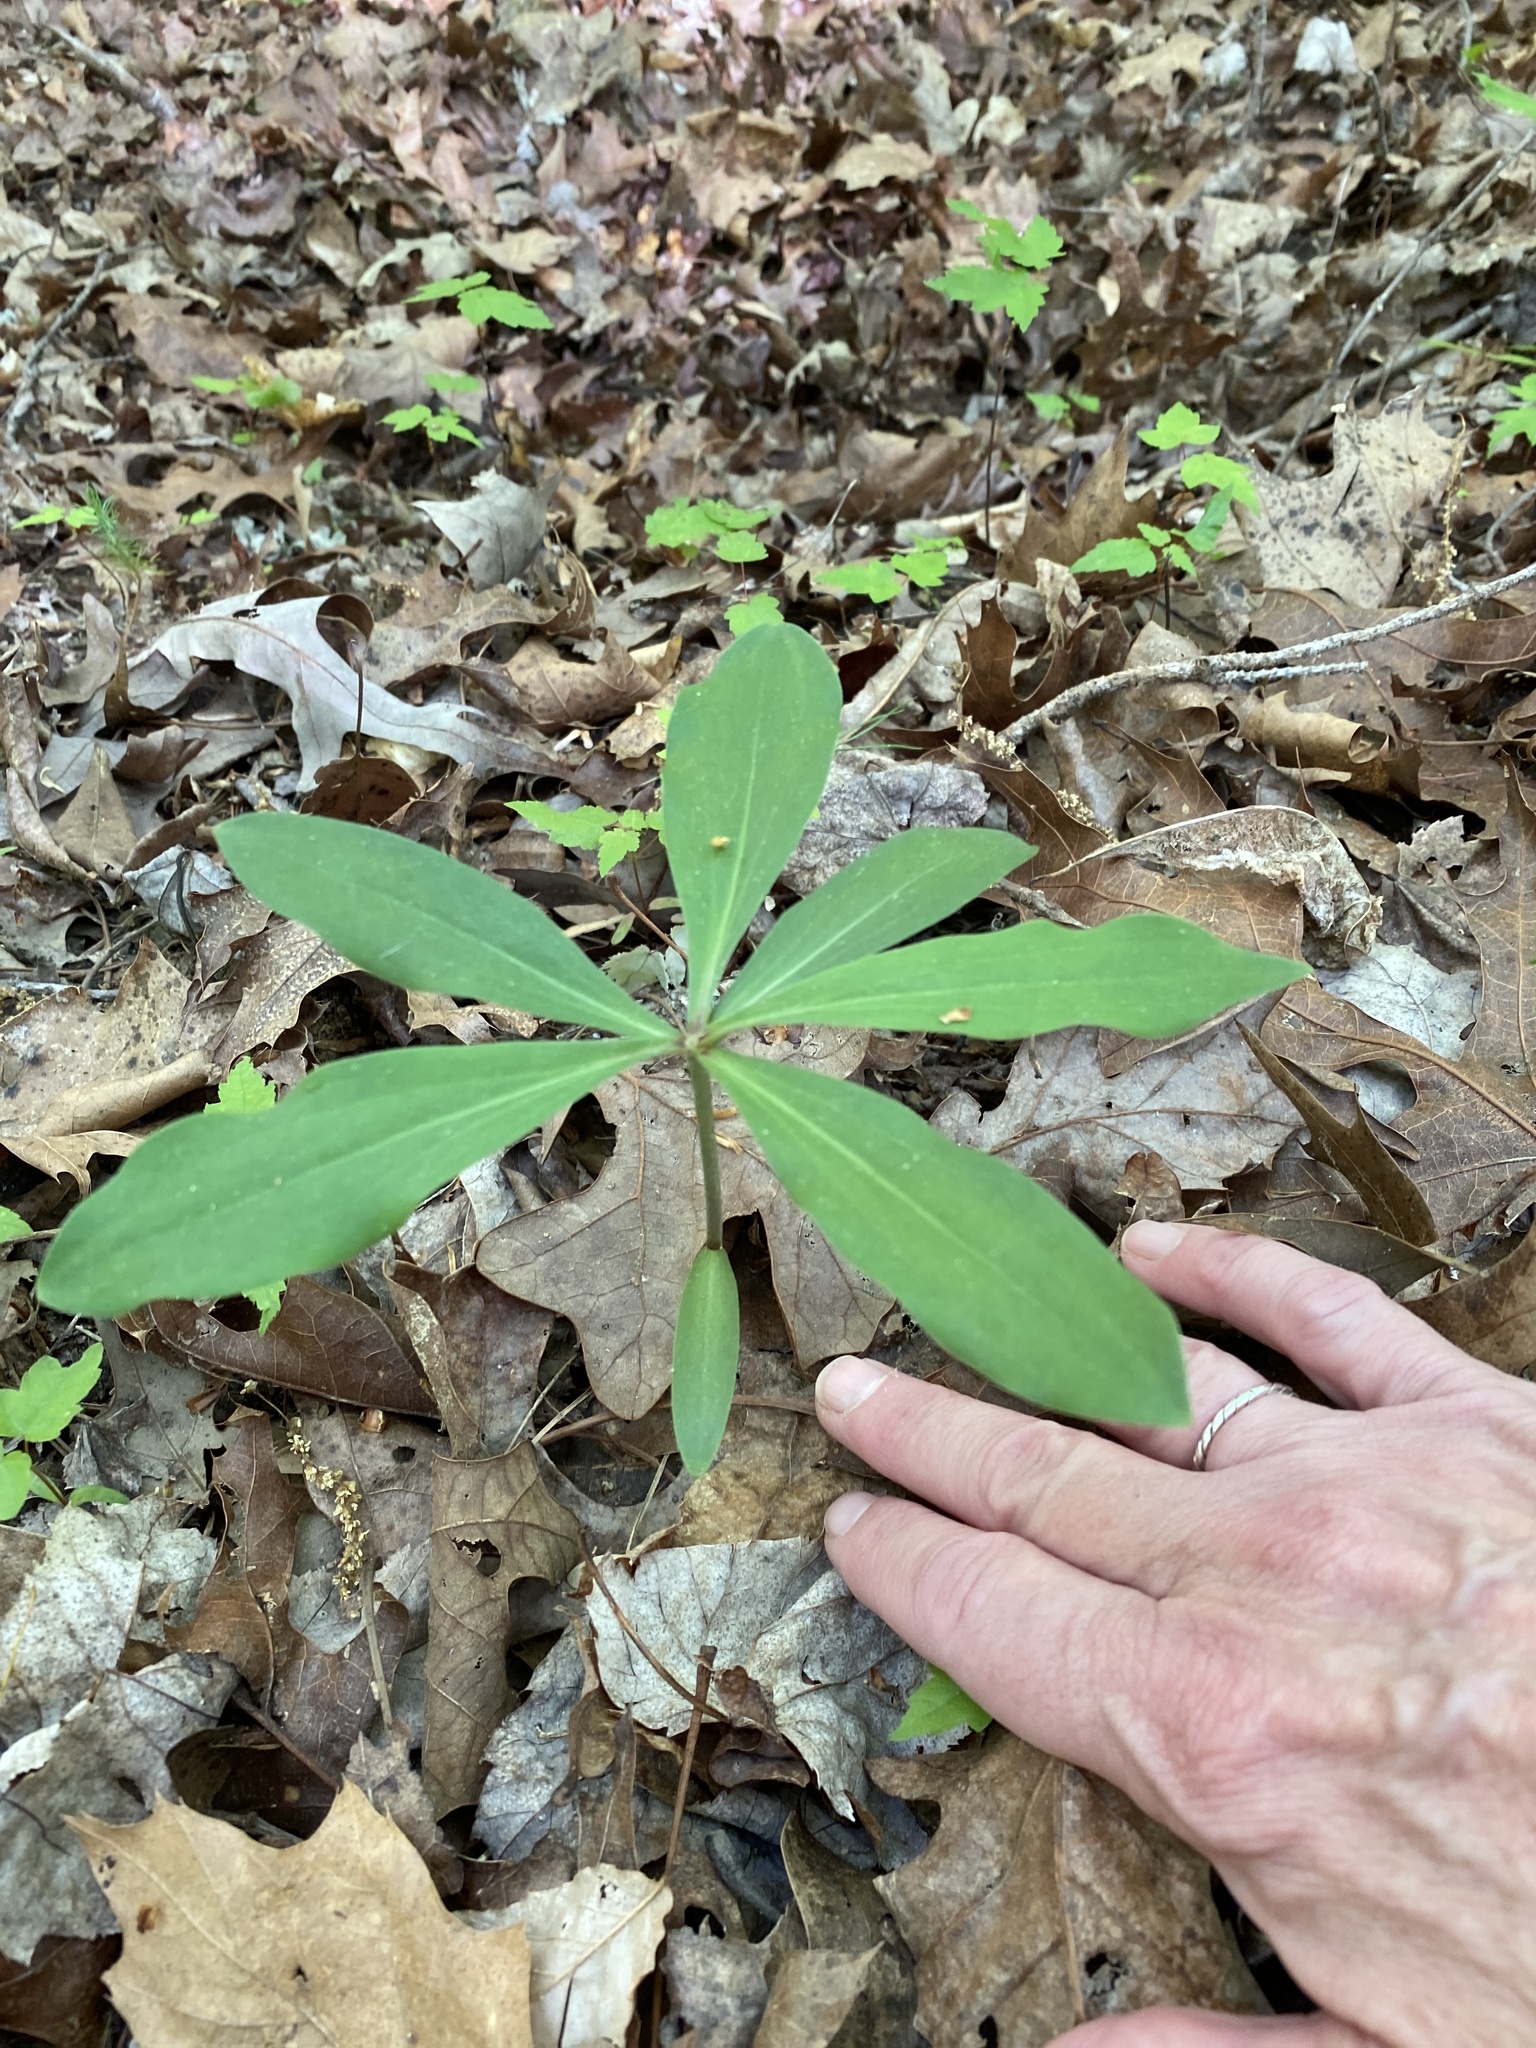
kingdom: Plantae
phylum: Tracheophyta
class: Liliopsida
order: Liliales
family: Liliaceae
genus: Lilium
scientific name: Lilium michauxii
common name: Carolina lily
